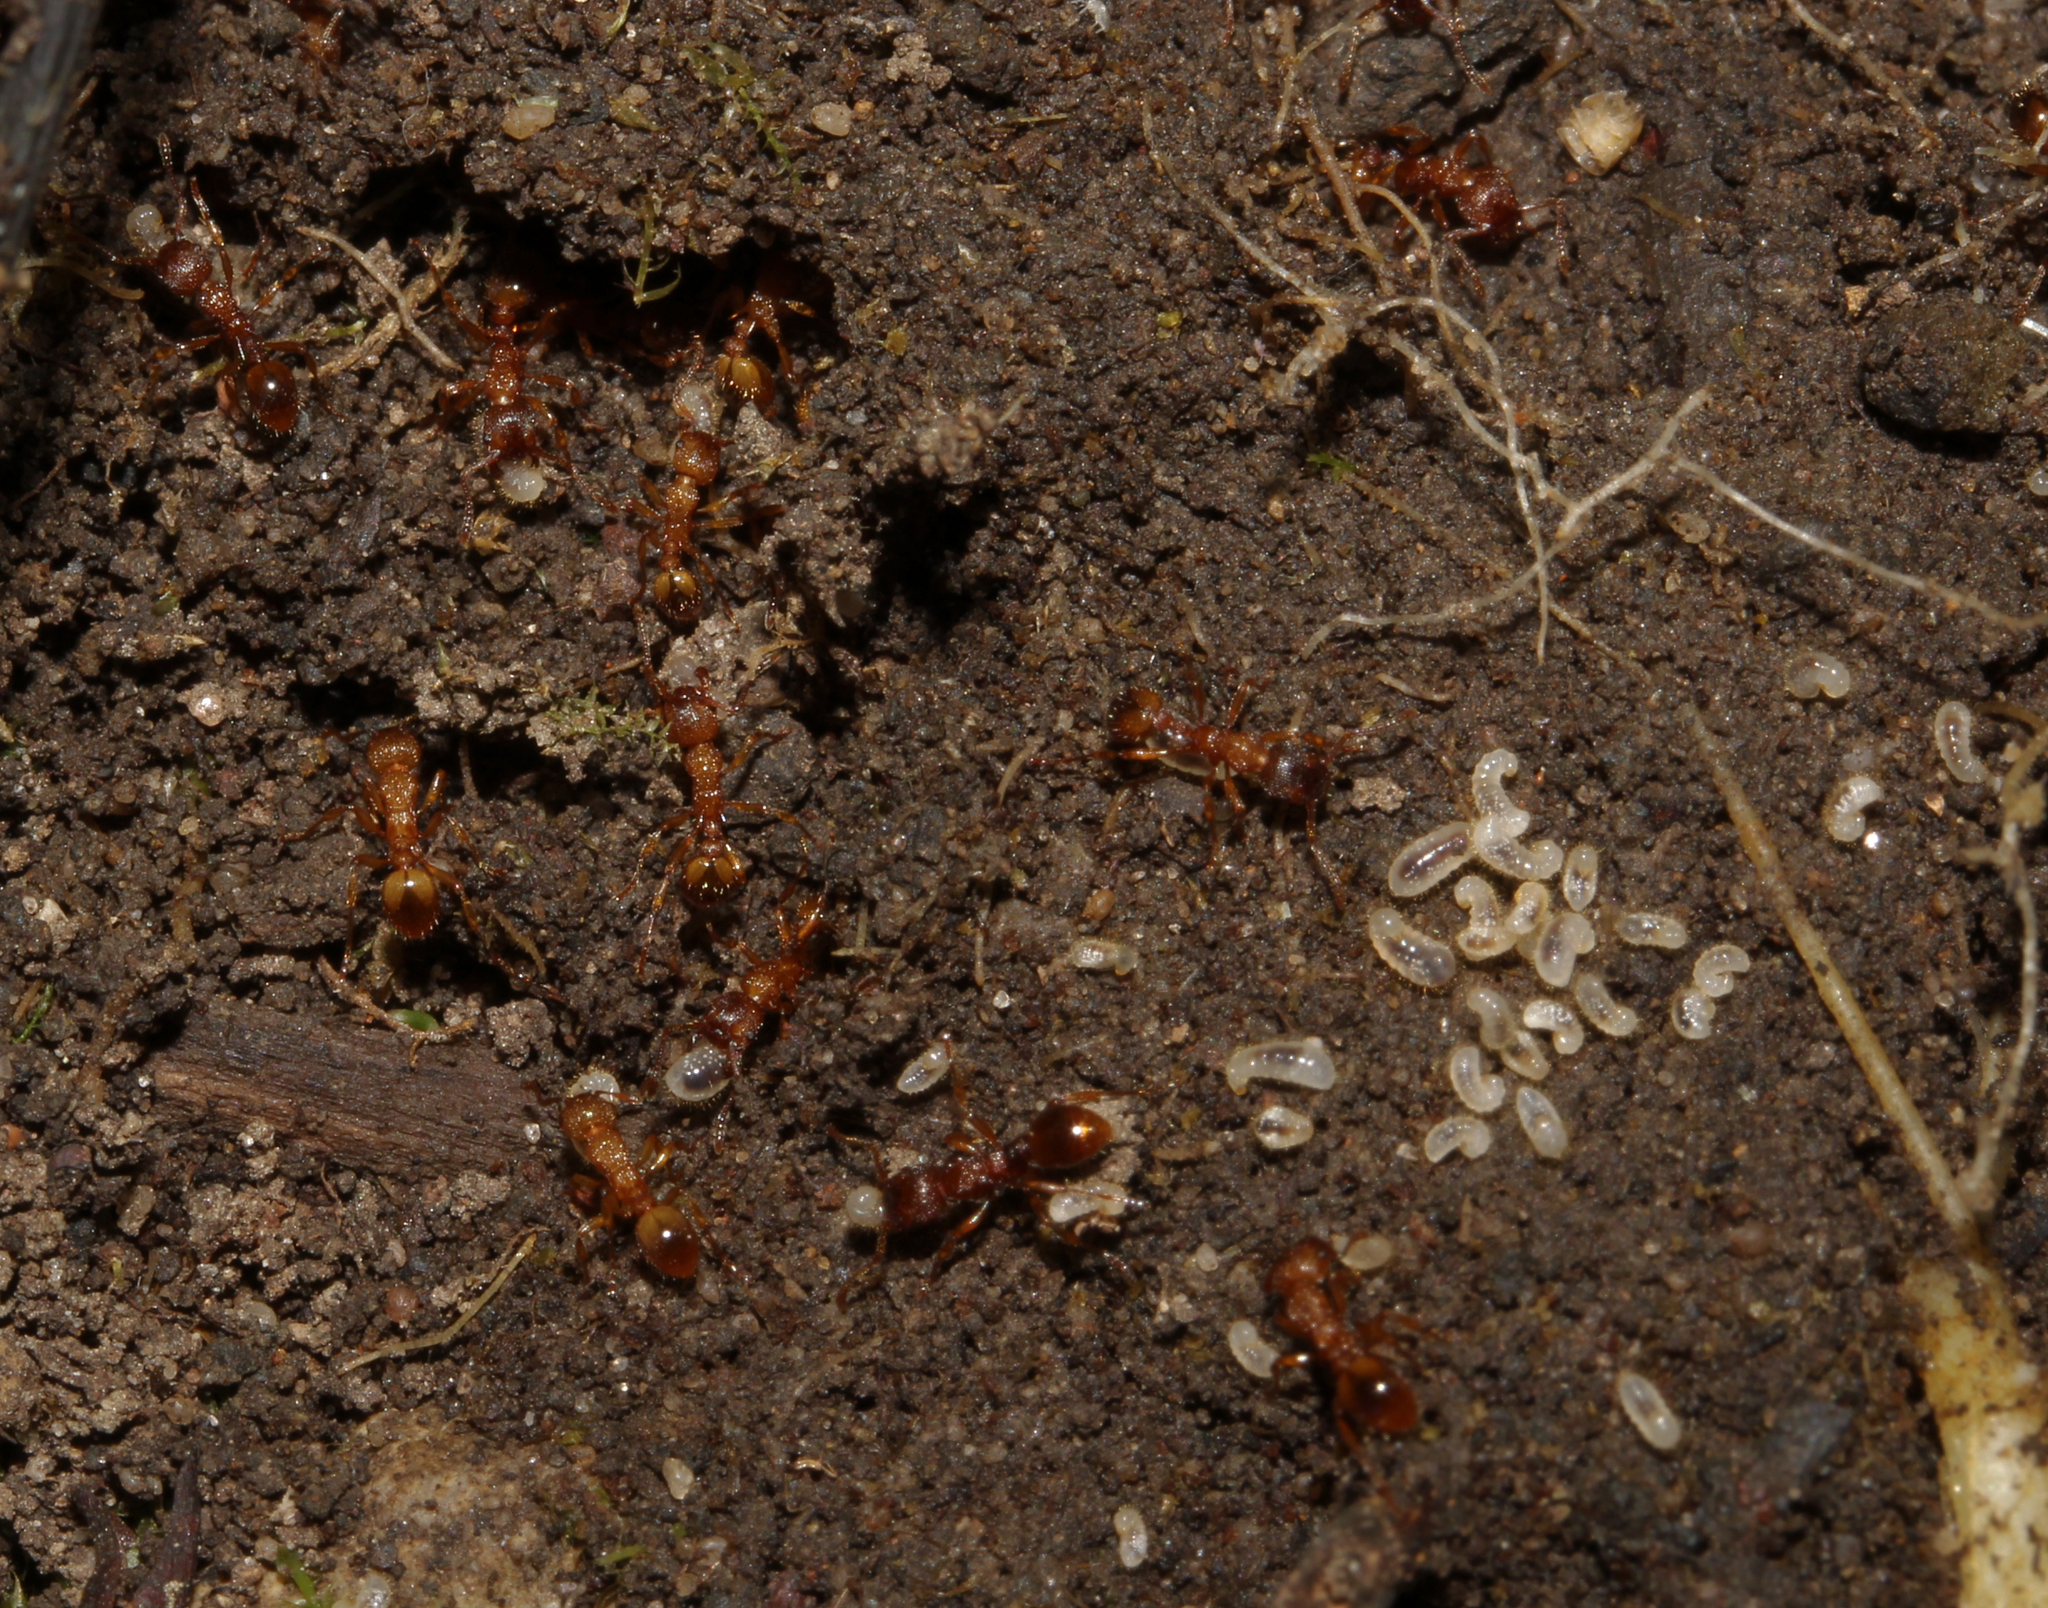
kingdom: Animalia
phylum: Arthropoda
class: Insecta
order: Hymenoptera
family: Formicidae
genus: Myrmica
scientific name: Myrmica
